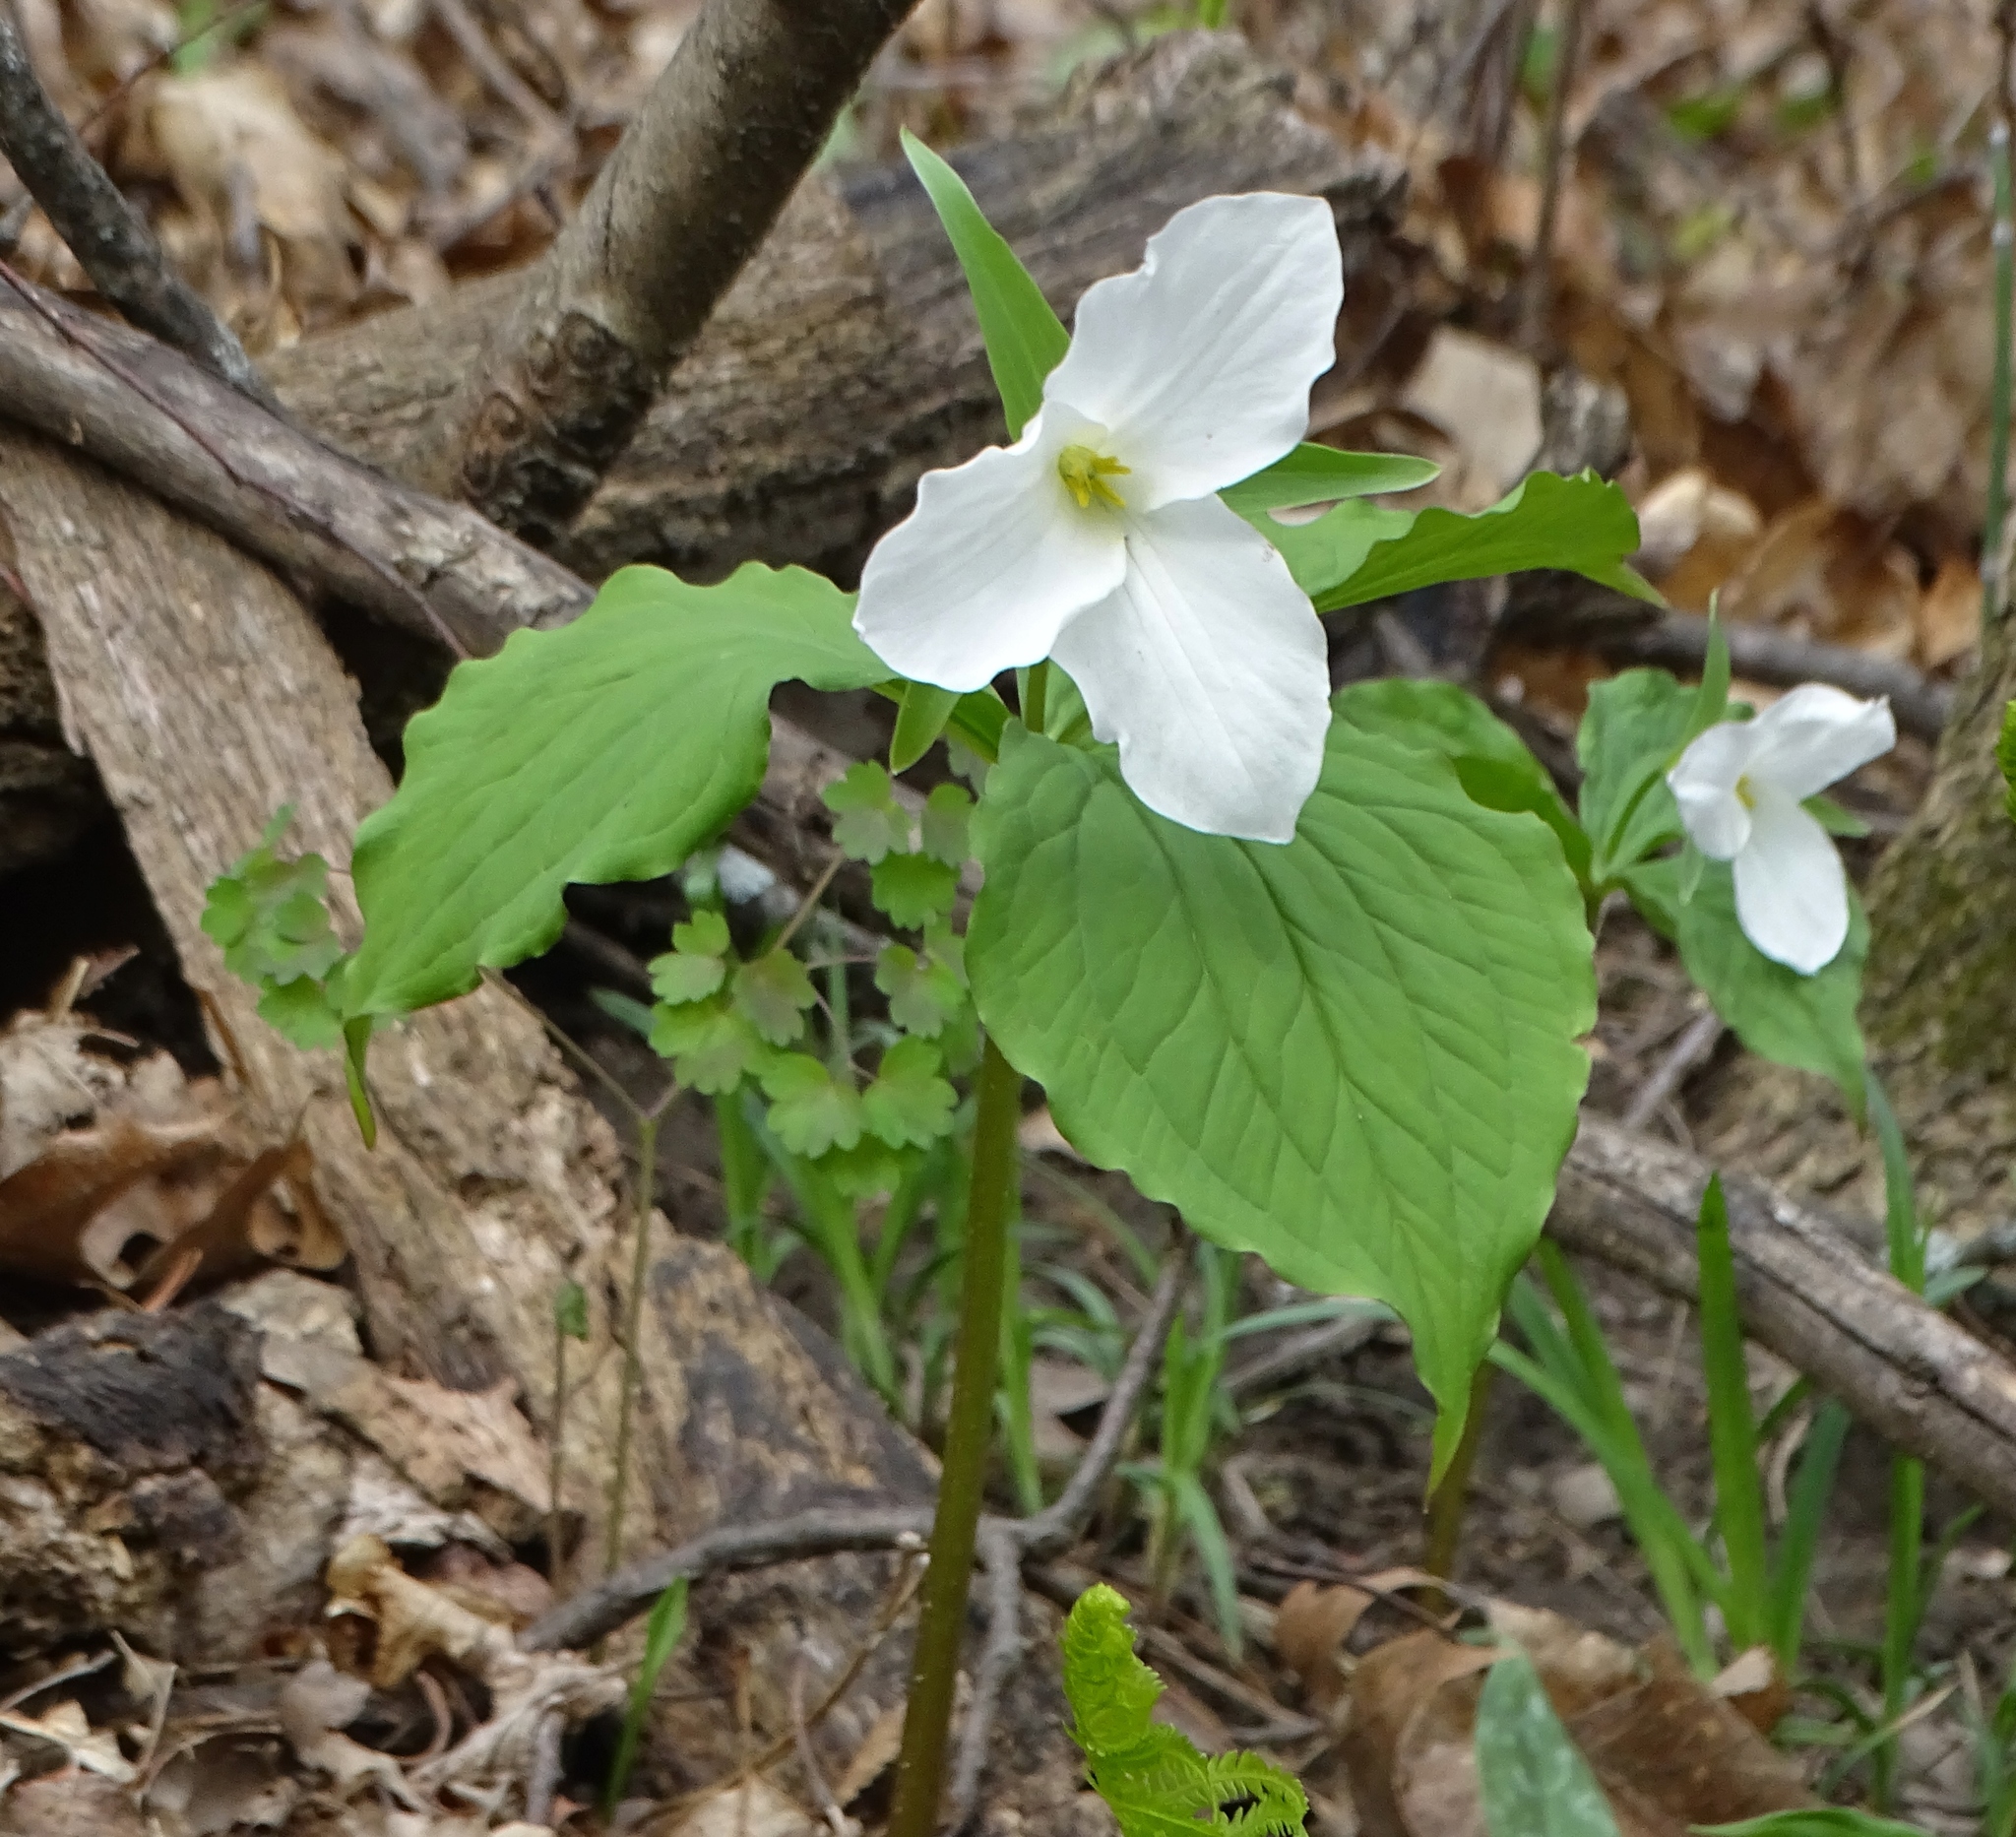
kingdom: Plantae
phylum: Tracheophyta
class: Liliopsida
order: Liliales
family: Melanthiaceae
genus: Trillium
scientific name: Trillium grandiflorum
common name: Great white trillium
